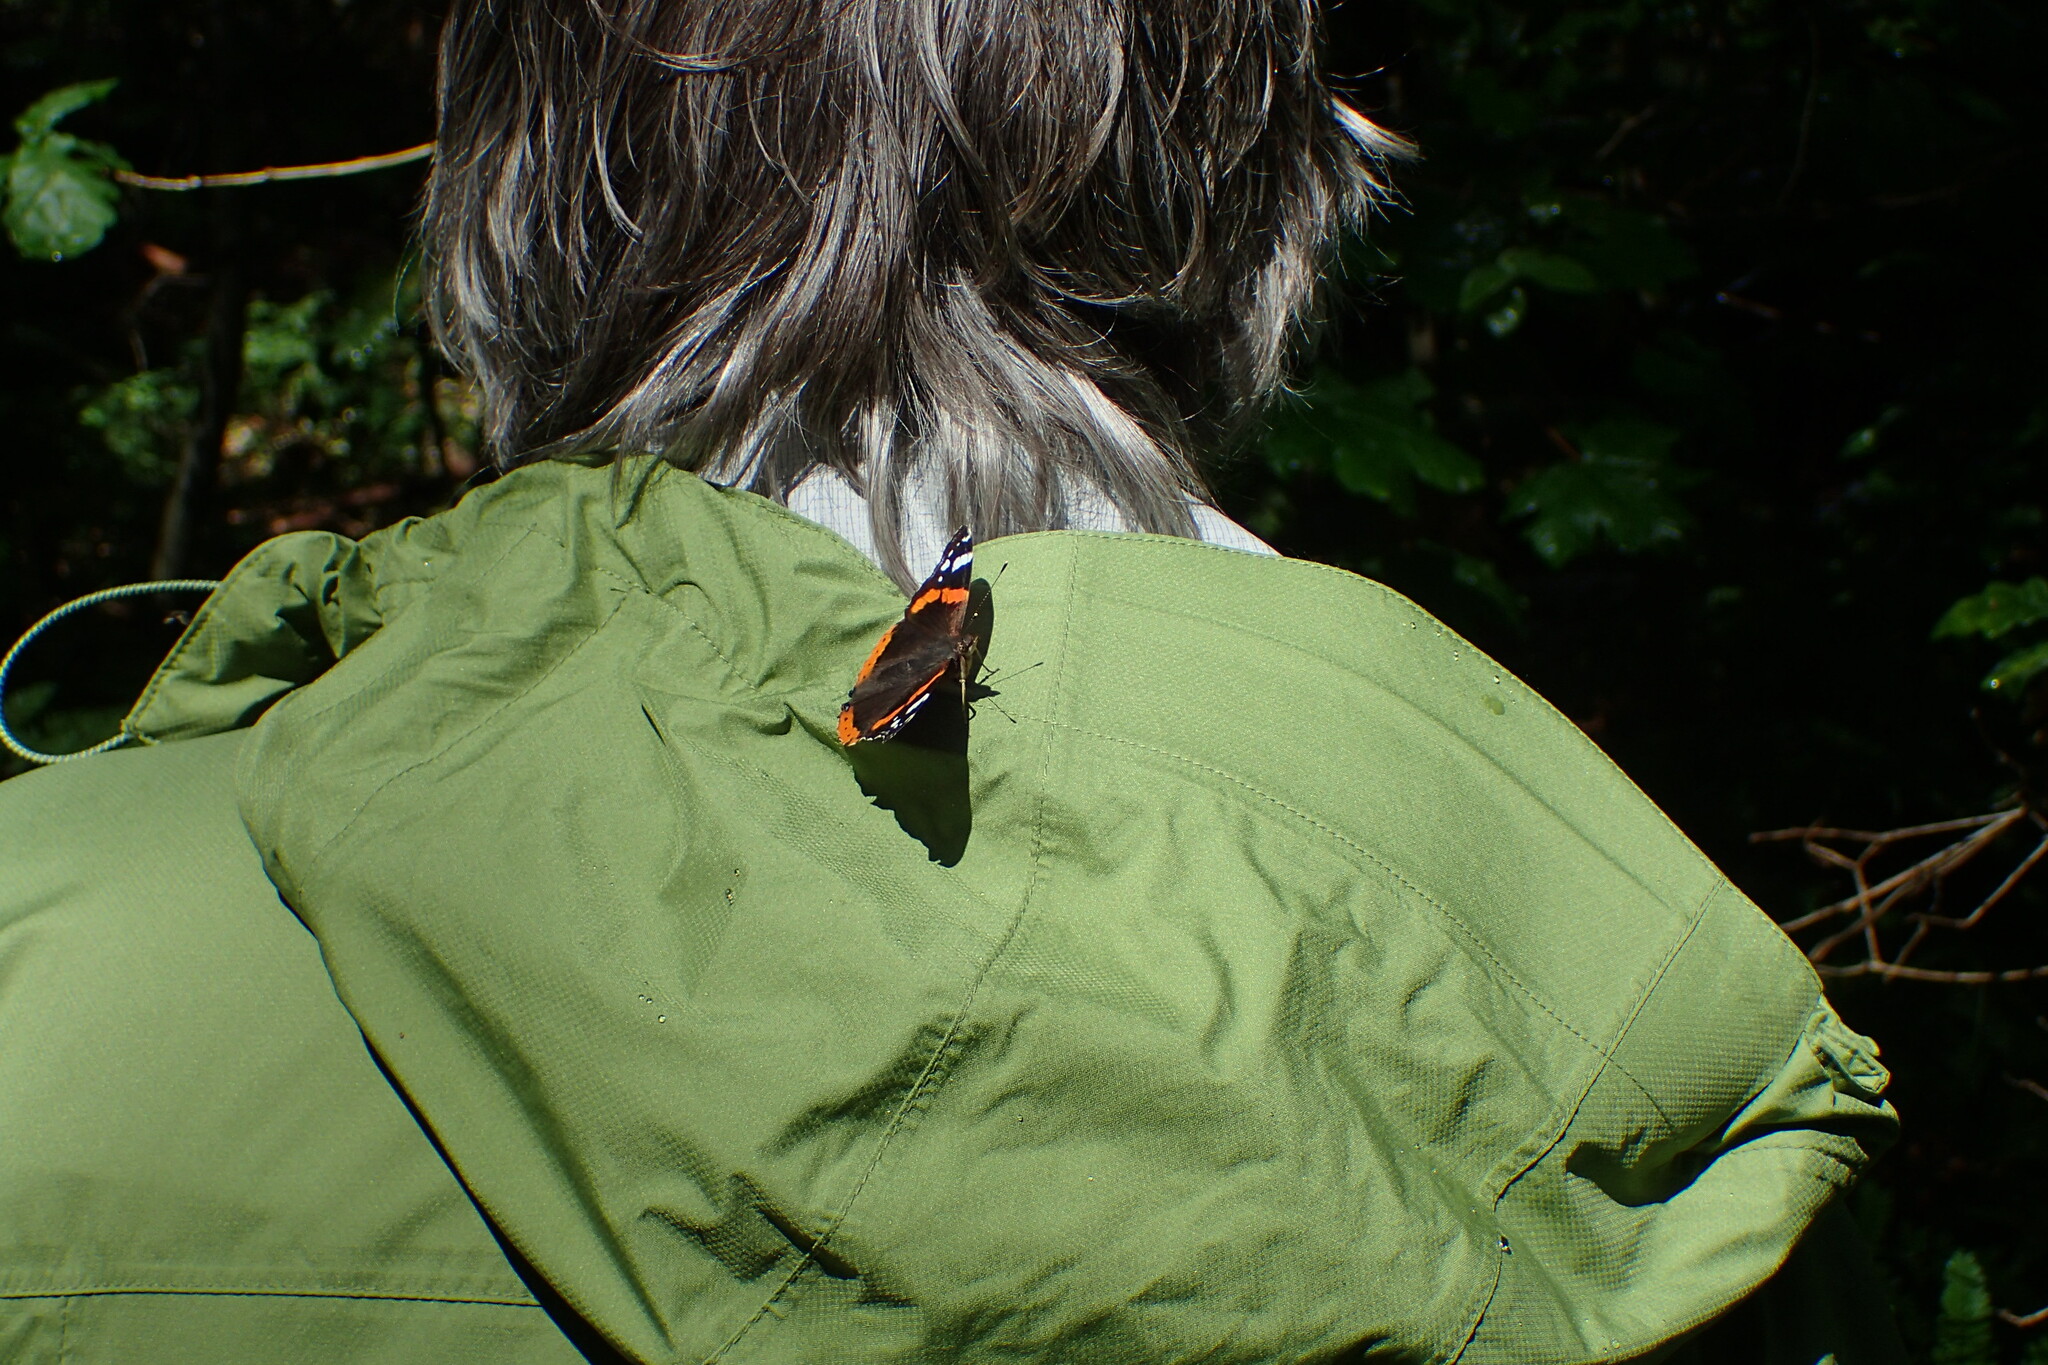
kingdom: Animalia
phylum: Arthropoda
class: Insecta
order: Lepidoptera
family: Nymphalidae
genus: Vanessa
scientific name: Vanessa atalanta
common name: Red admiral
